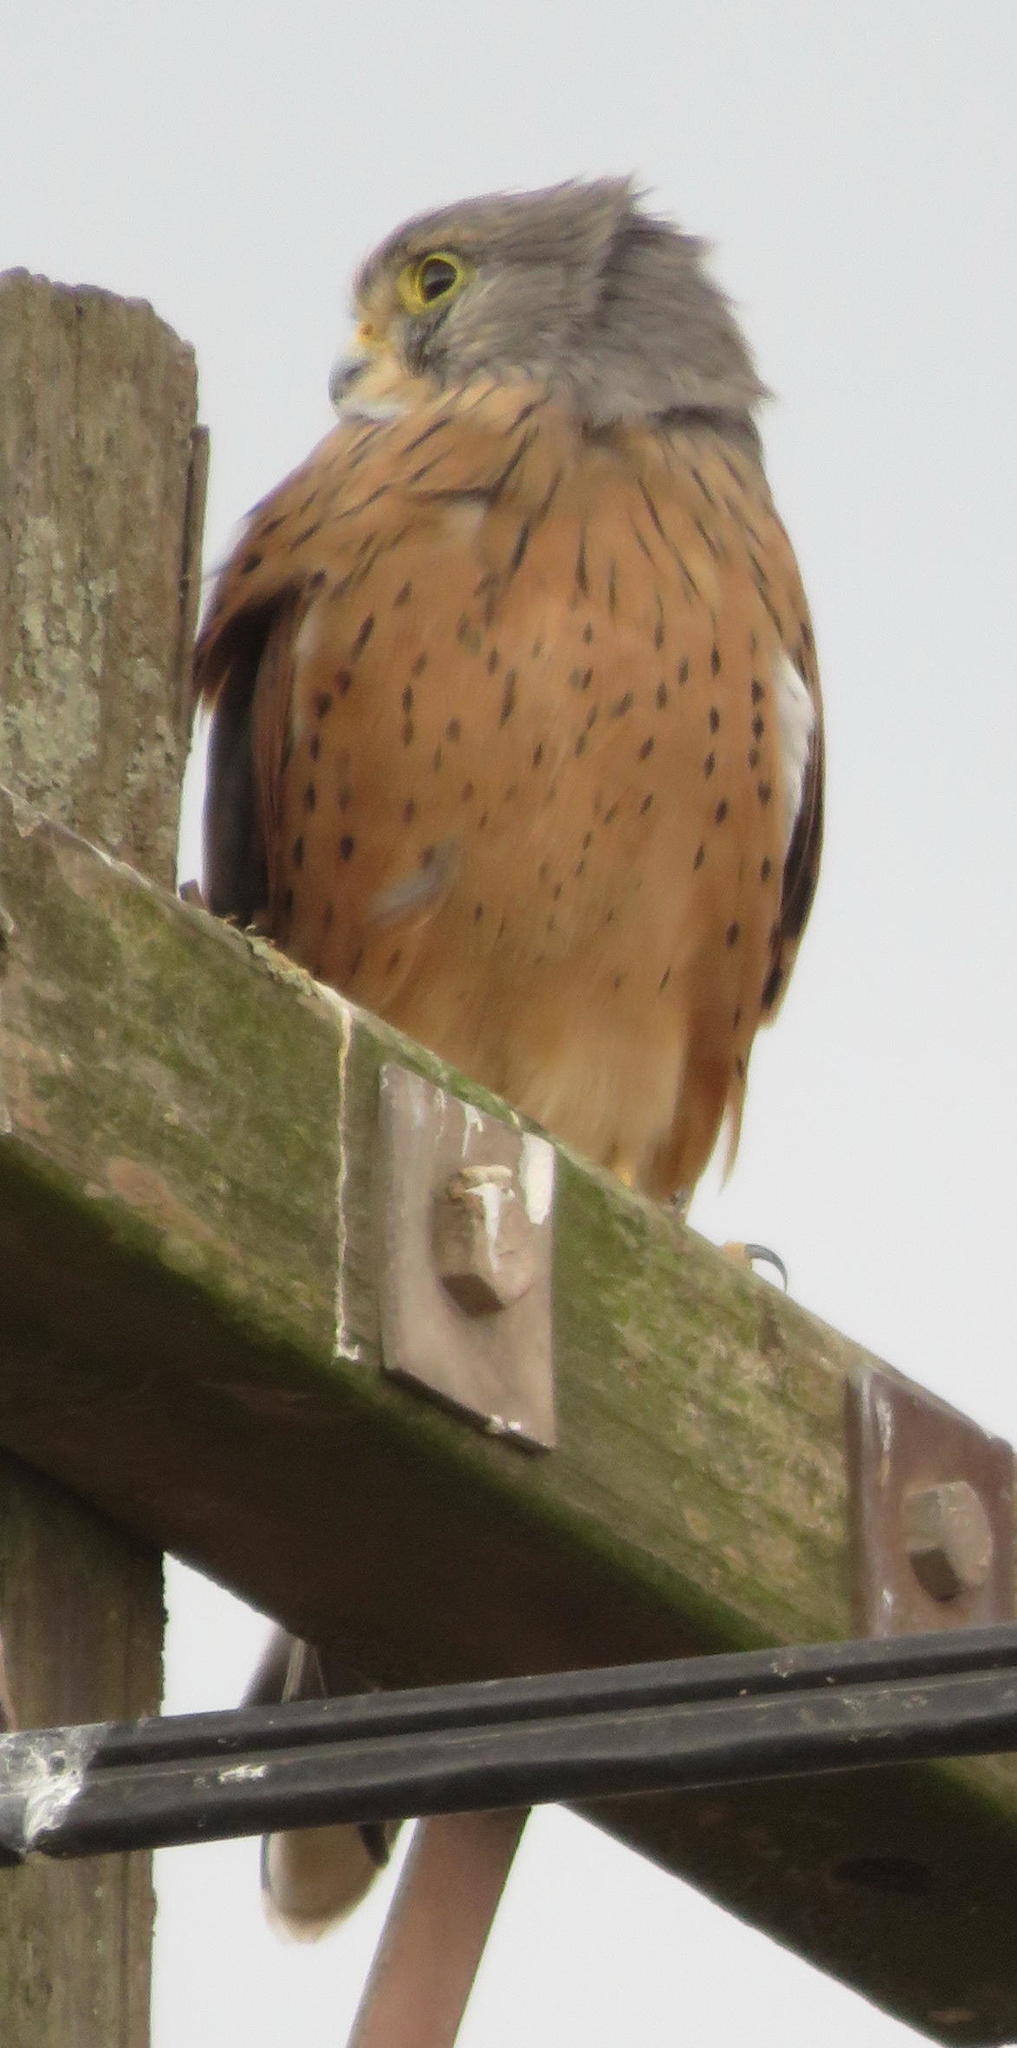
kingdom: Animalia
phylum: Chordata
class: Aves
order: Falconiformes
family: Falconidae
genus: Falco
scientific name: Falco rupicolus
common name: Rock kestrel
